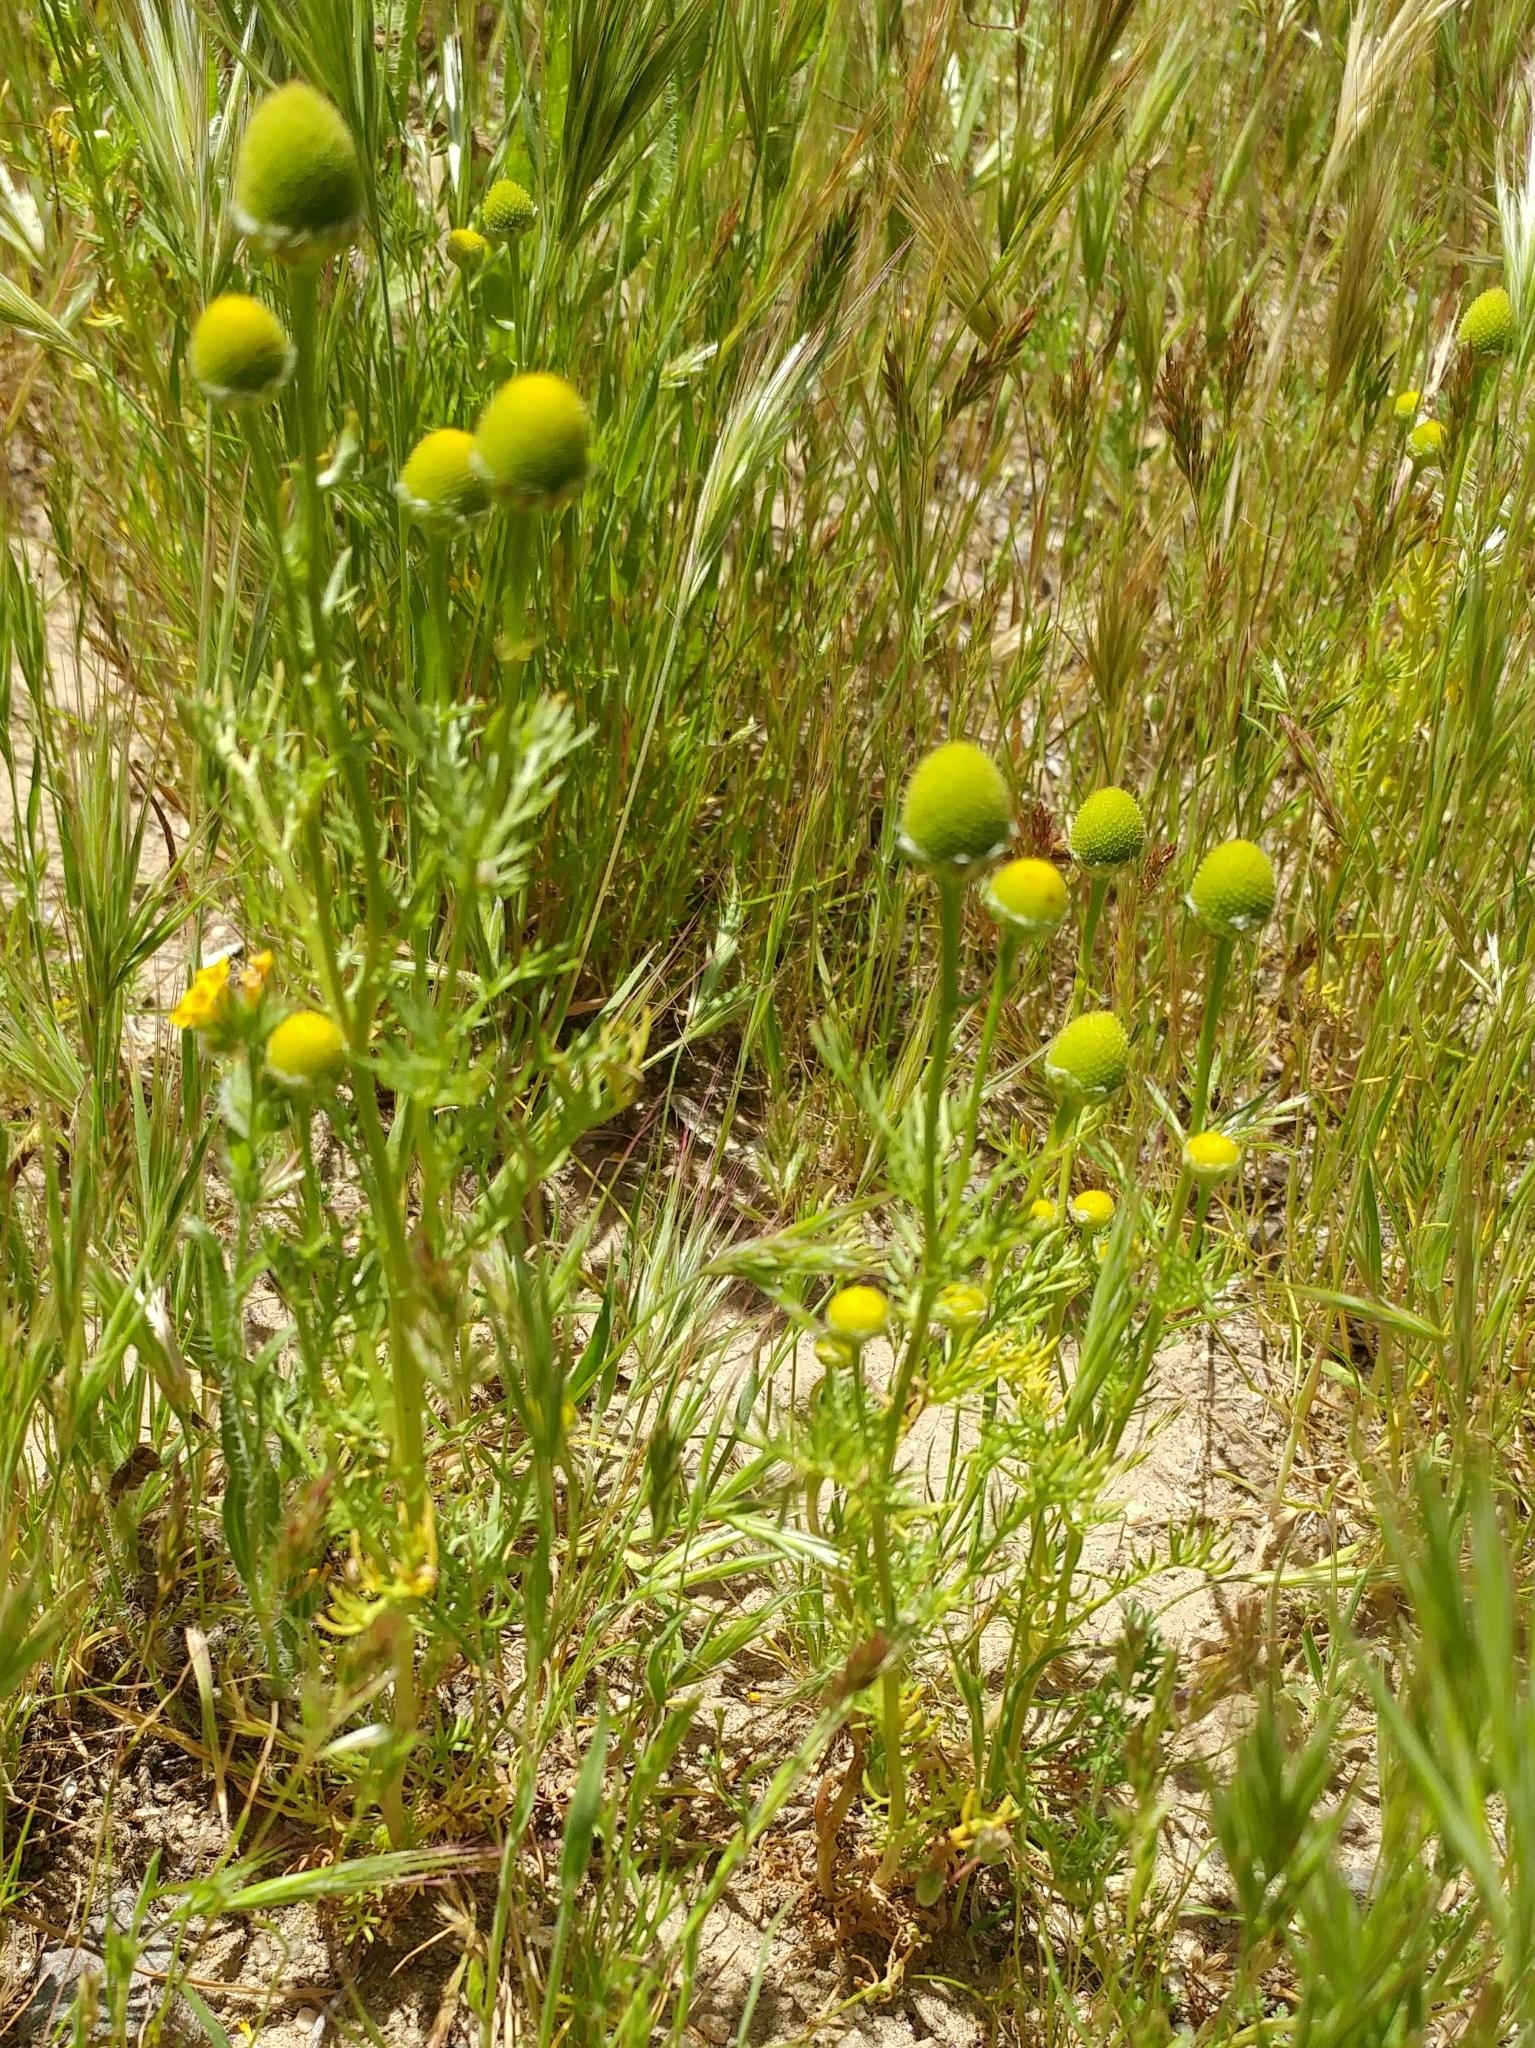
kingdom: Plantae
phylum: Tracheophyta
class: Magnoliopsida
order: Asterales
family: Asteraceae
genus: Matricaria
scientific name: Matricaria discoidea
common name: Disc mayweed
